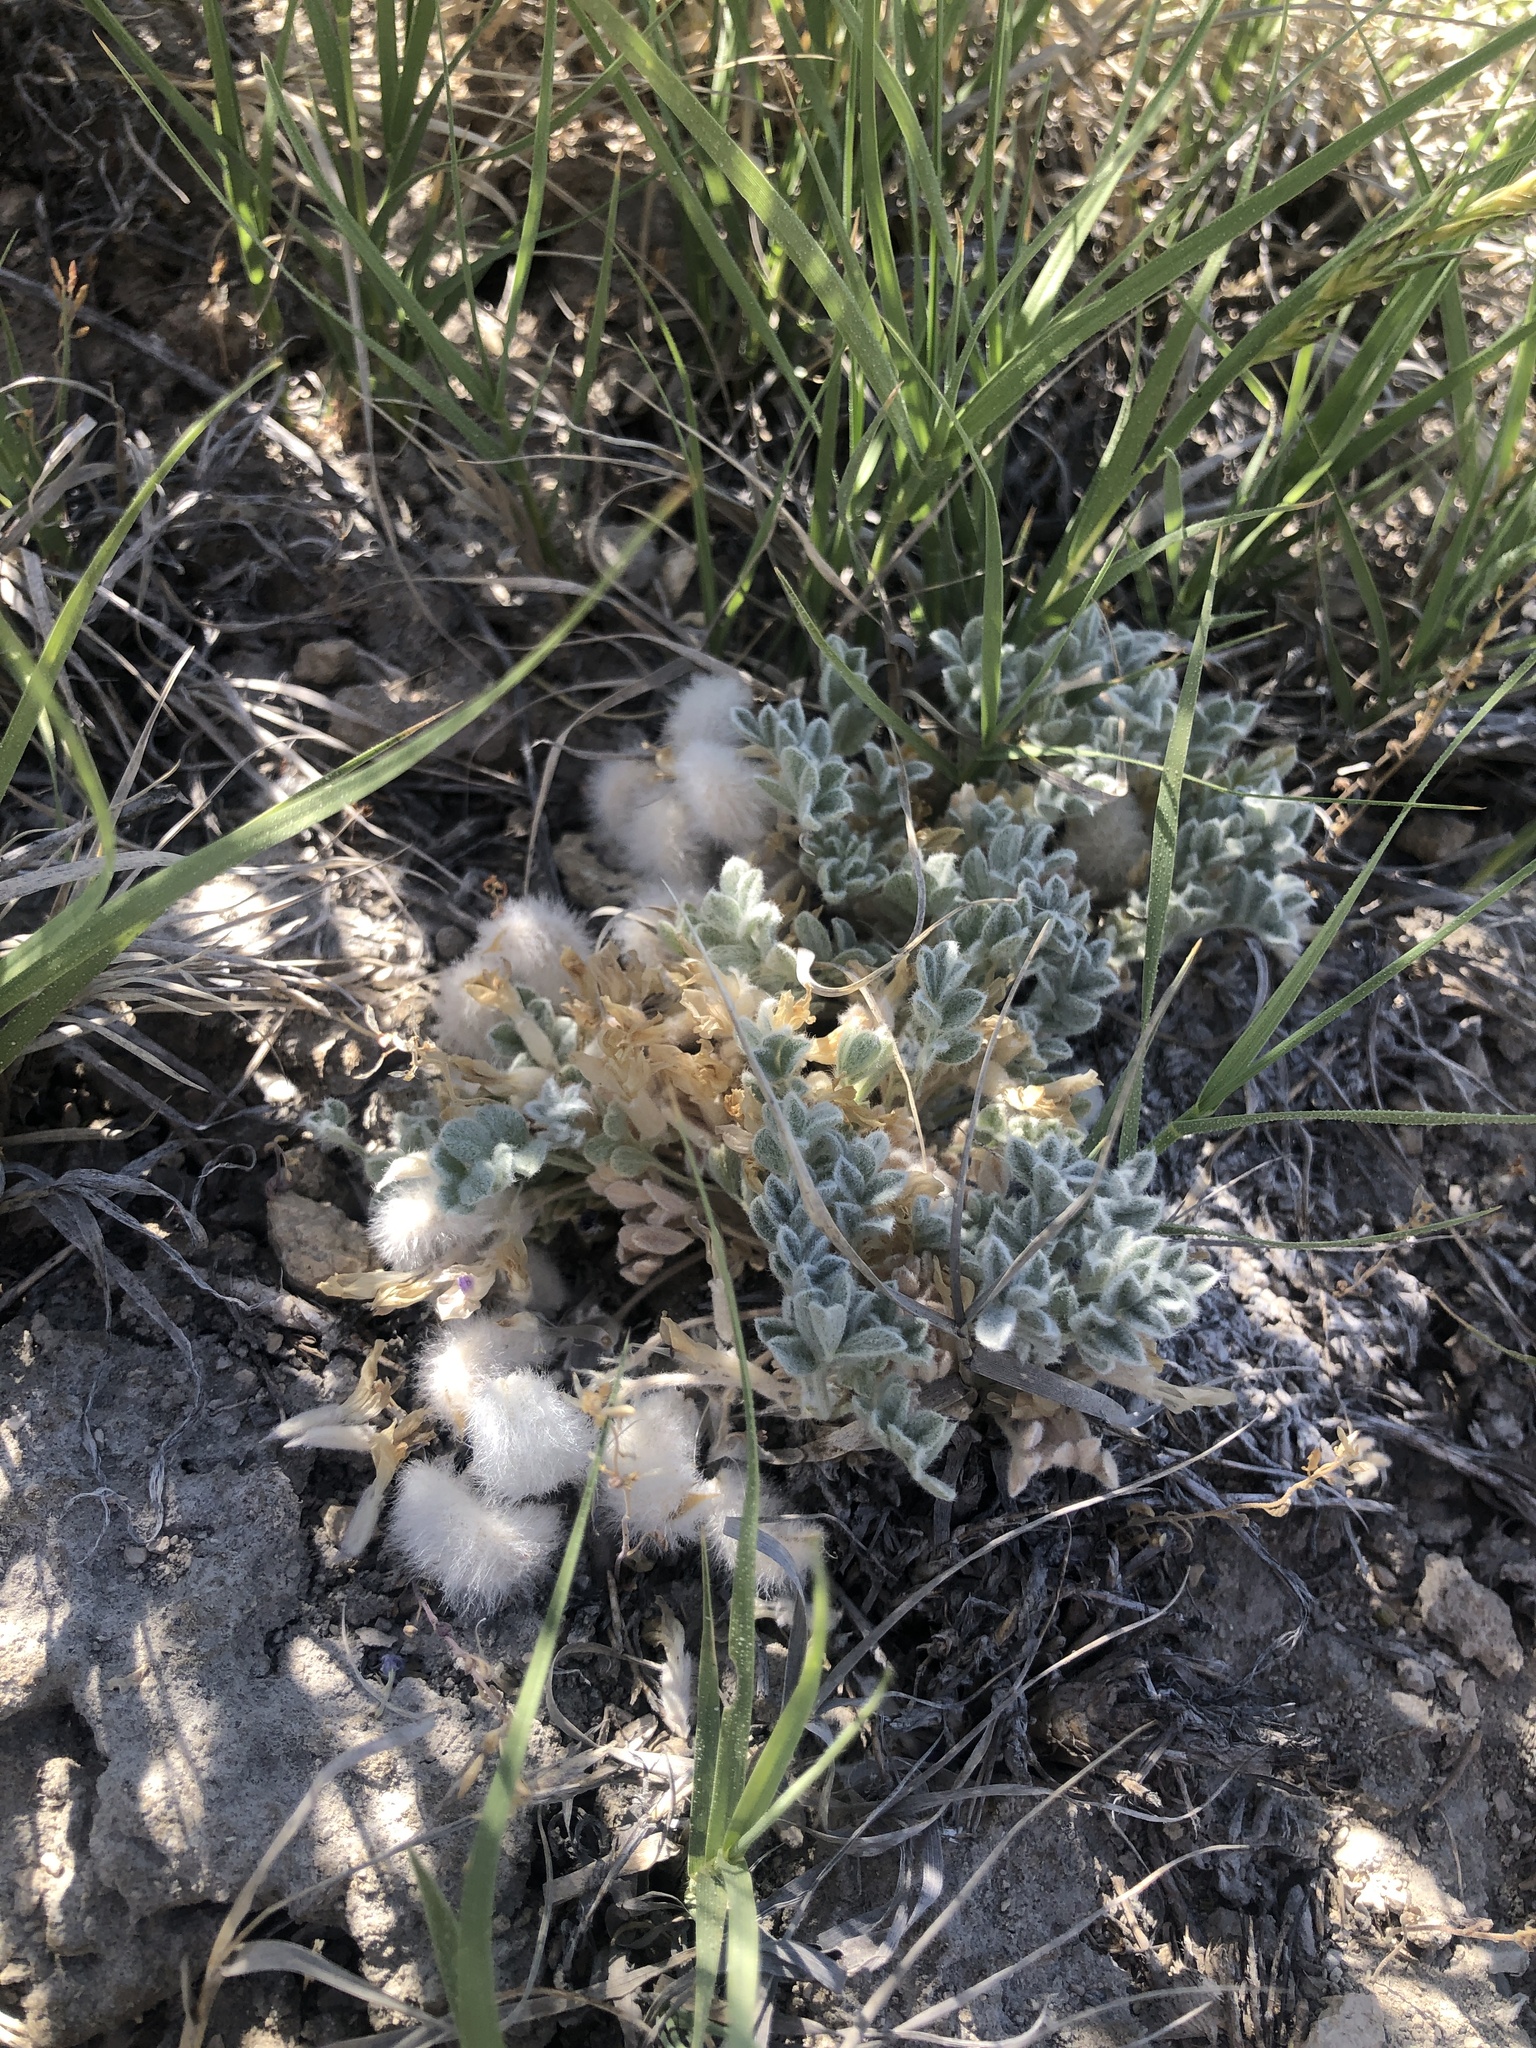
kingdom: Plantae
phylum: Tracheophyta
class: Magnoliopsida
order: Fabales
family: Fabaceae
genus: Astragalus
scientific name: Astragalus purshii
